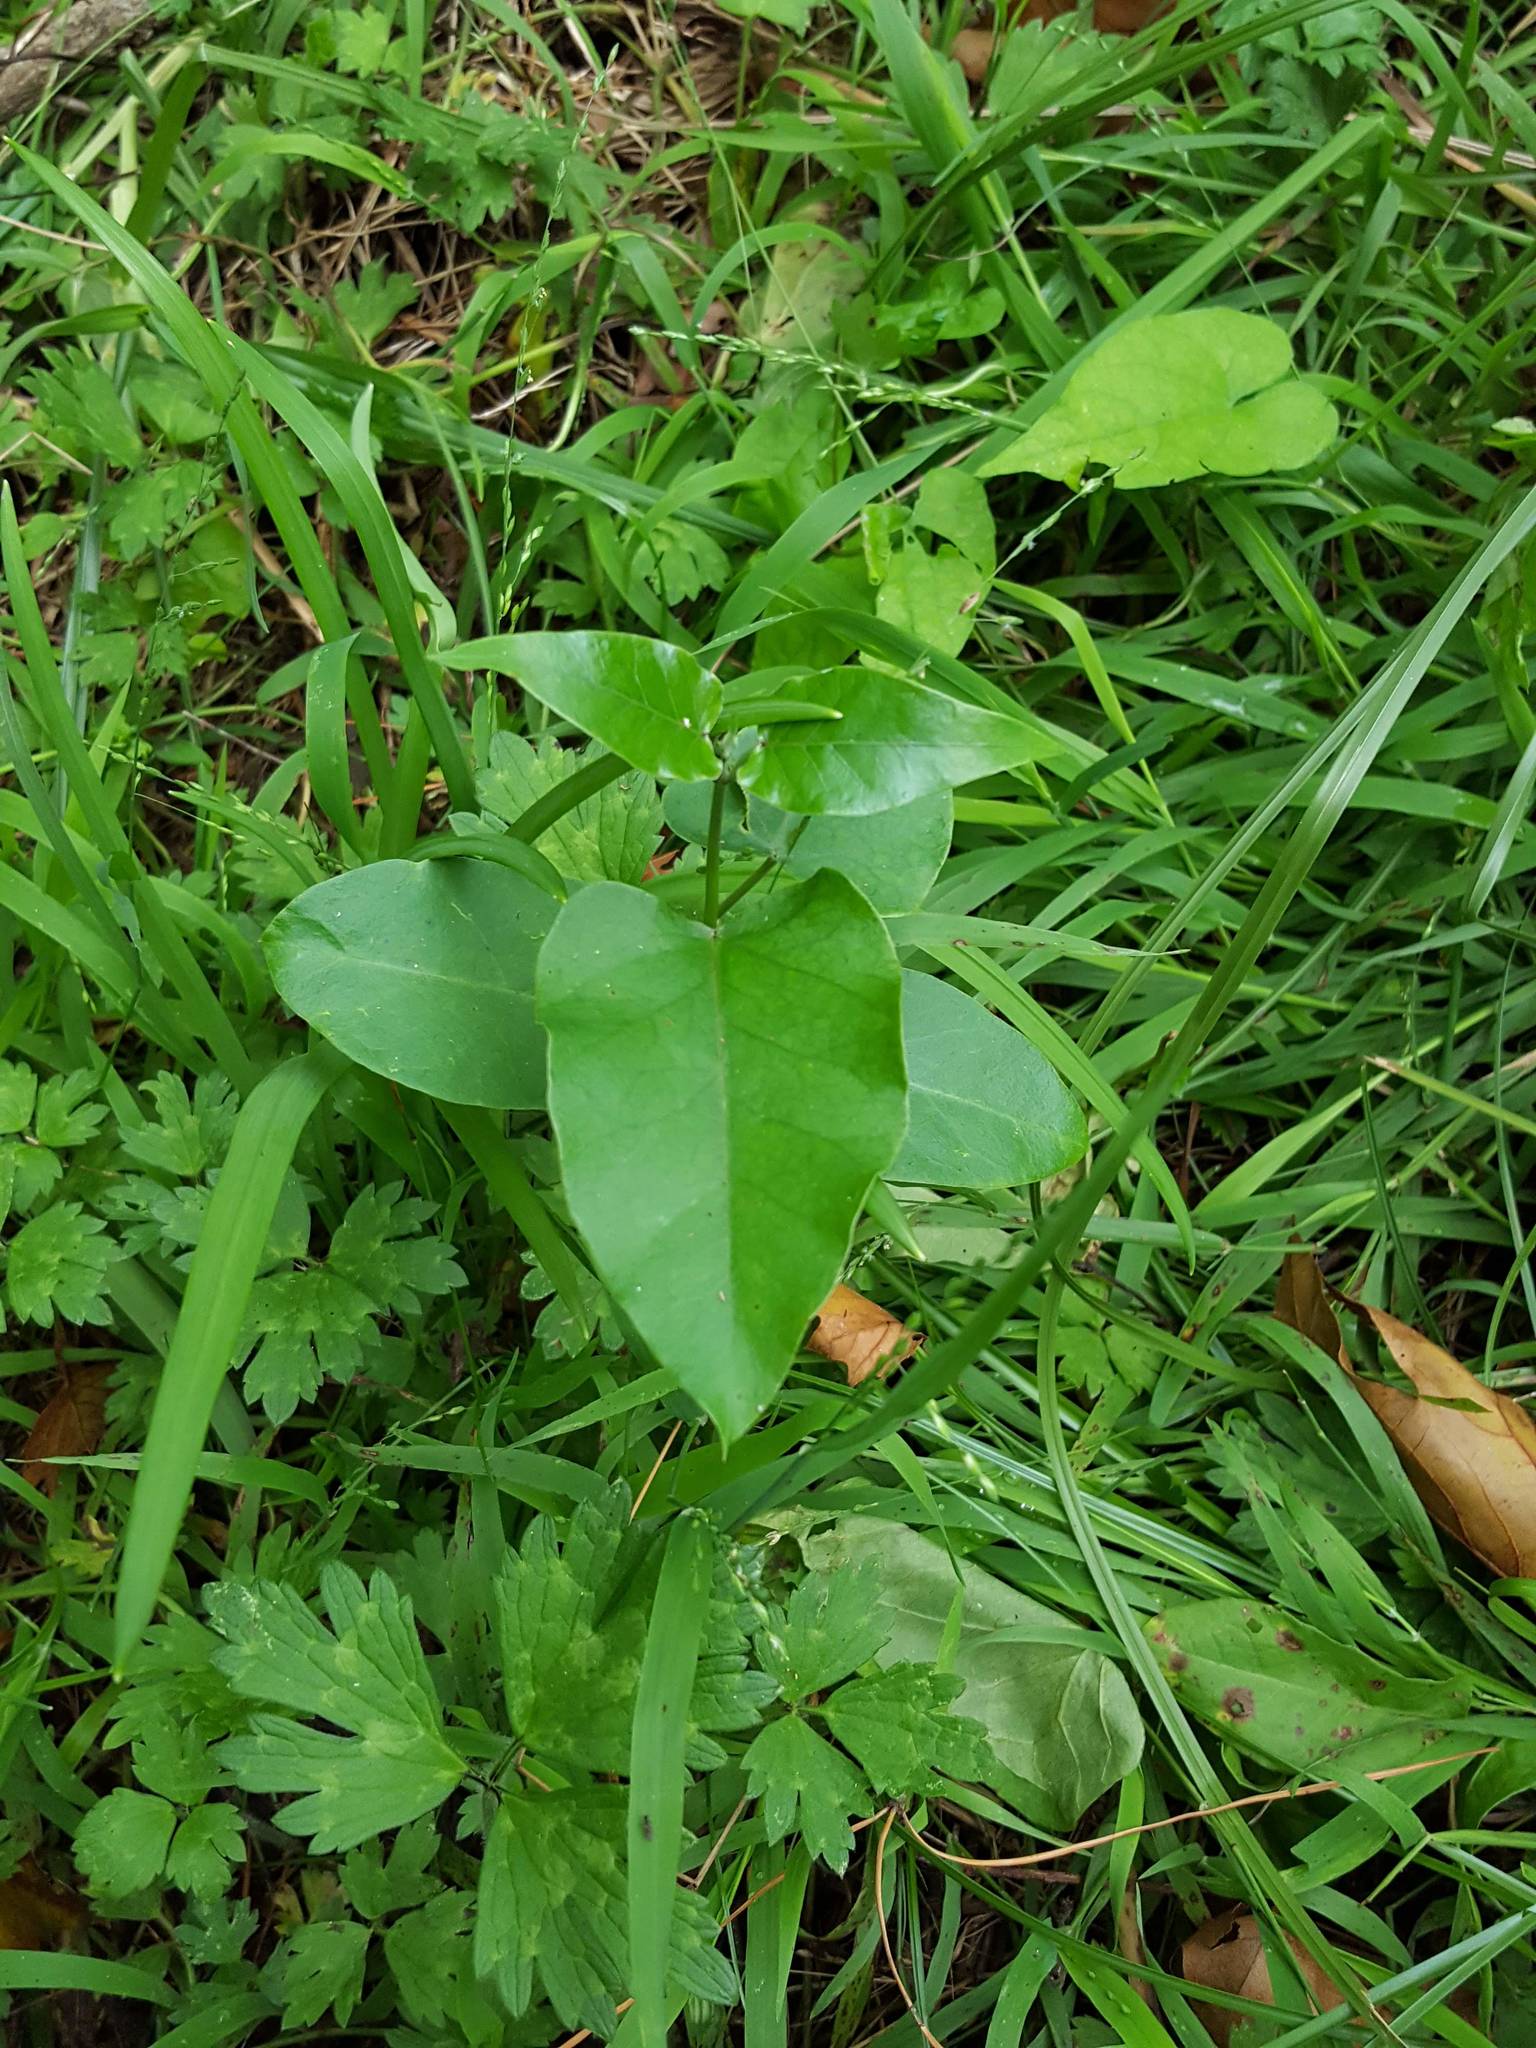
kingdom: Plantae
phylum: Tracheophyta
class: Magnoliopsida
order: Gentianales
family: Apocynaceae
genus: Araujia
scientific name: Araujia sericifera
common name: White bladderflower
